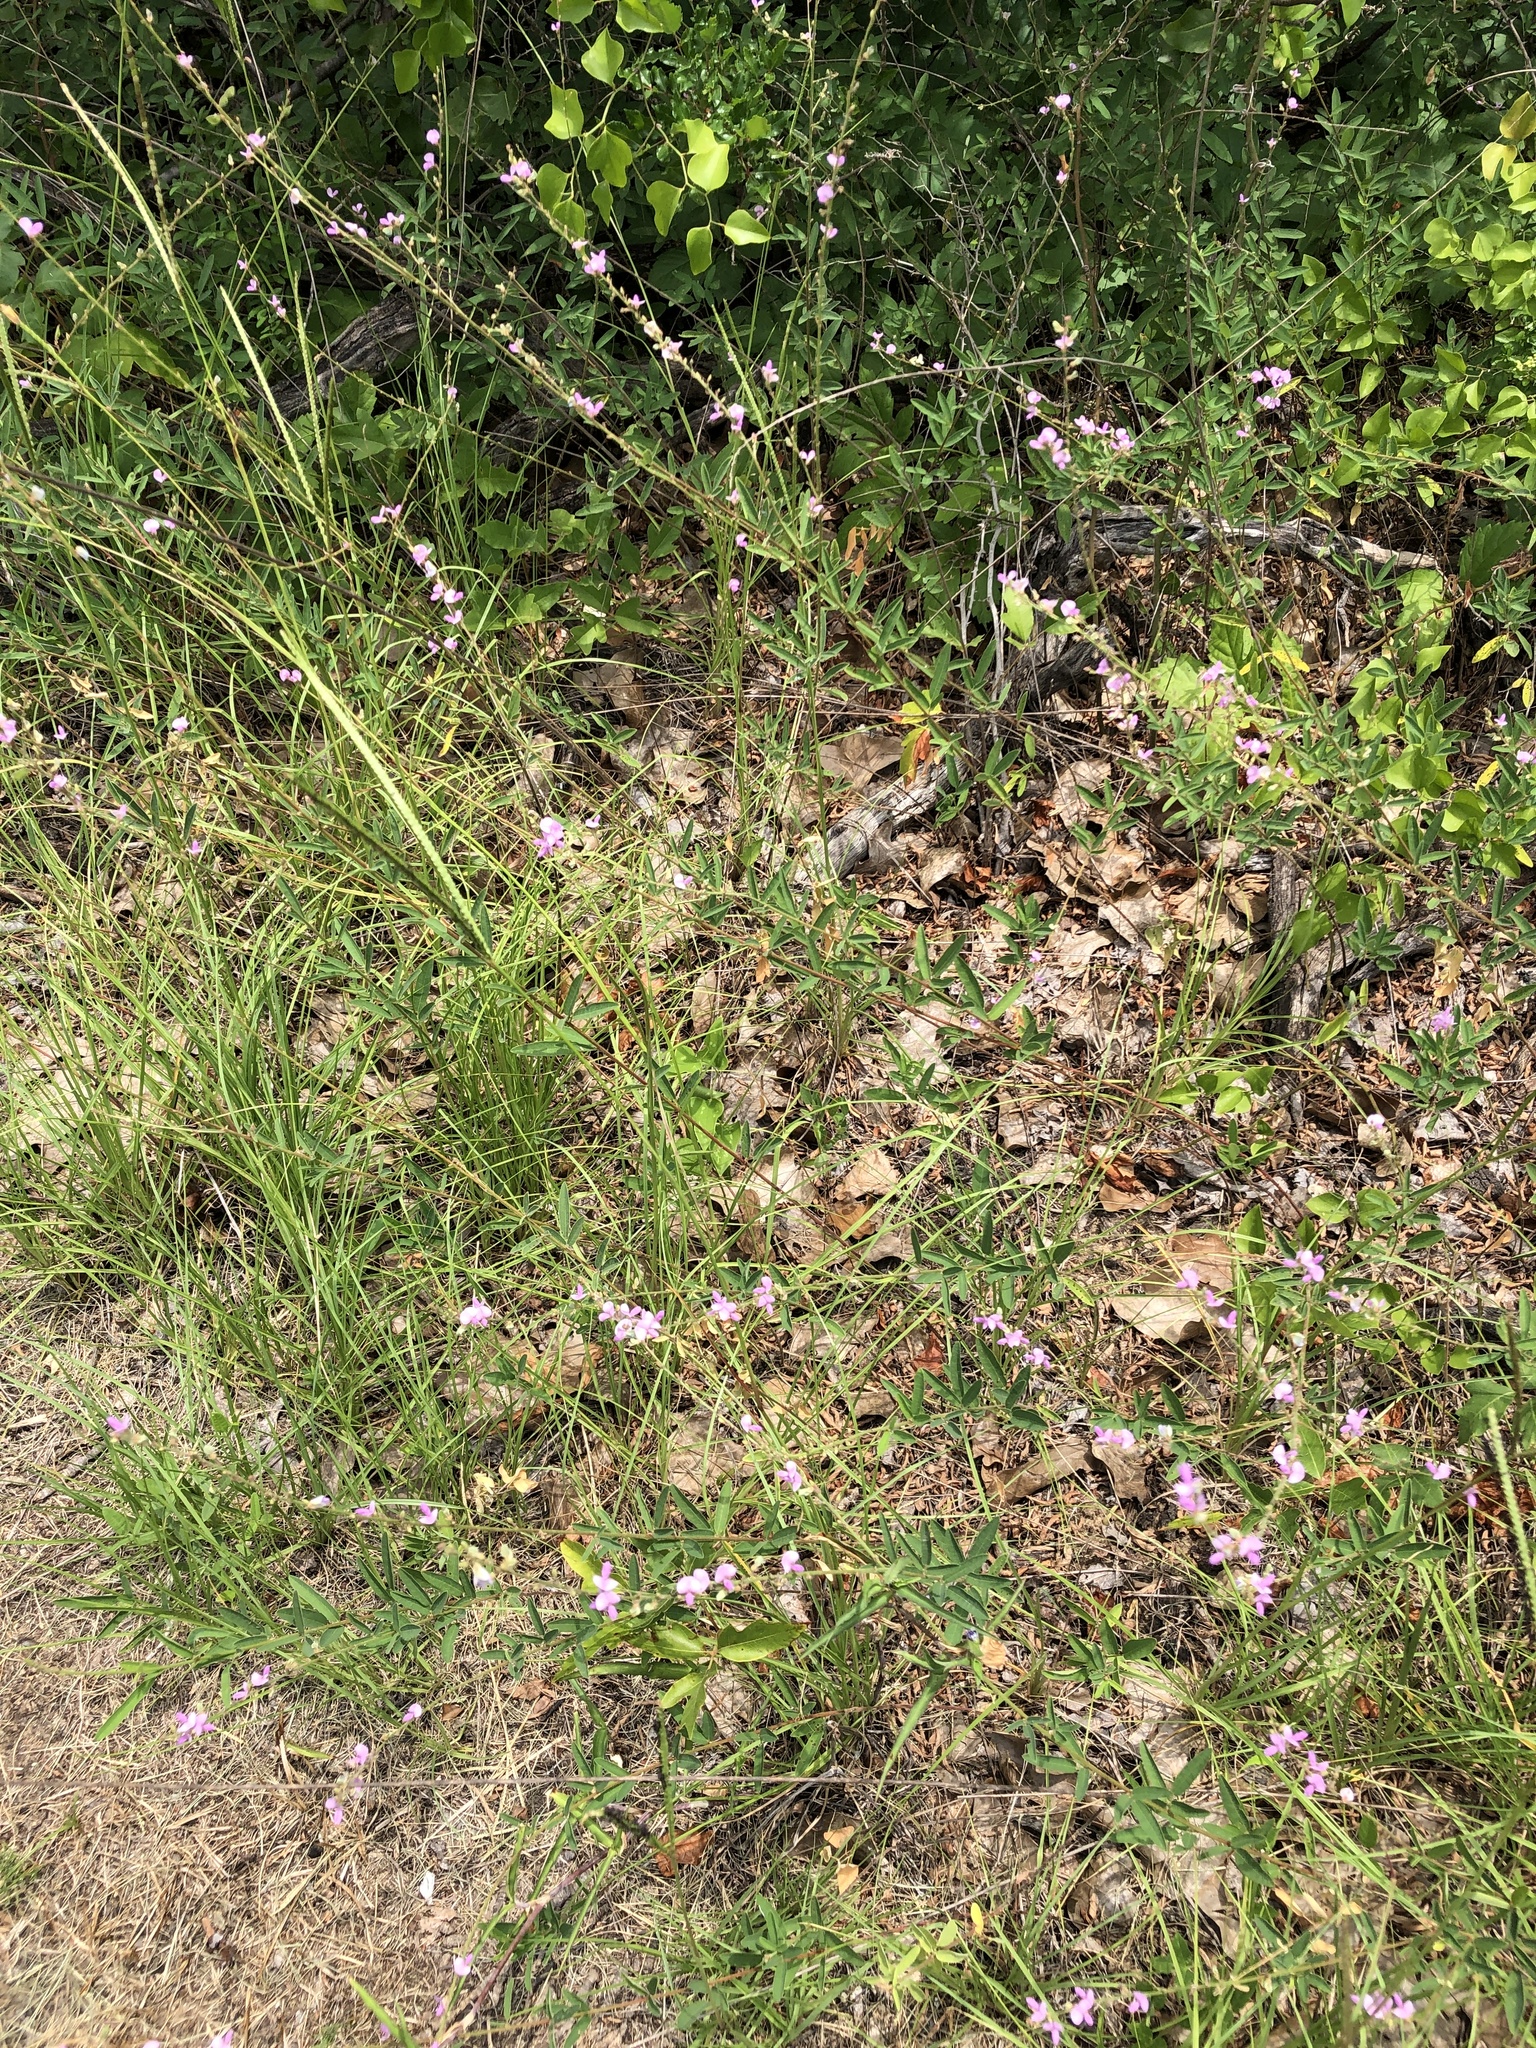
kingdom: Plantae
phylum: Tracheophyta
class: Magnoliopsida
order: Fabales
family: Fabaceae
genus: Desmodium
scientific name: Desmodium sessilifolium
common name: Sessile tick-clover
